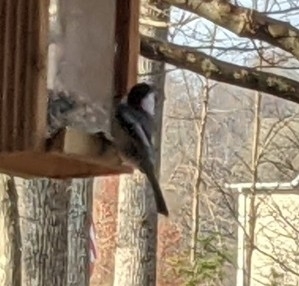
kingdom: Animalia
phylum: Chordata
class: Aves
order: Passeriformes
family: Paridae
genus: Poecile
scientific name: Poecile atricapillus
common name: Black-capped chickadee
